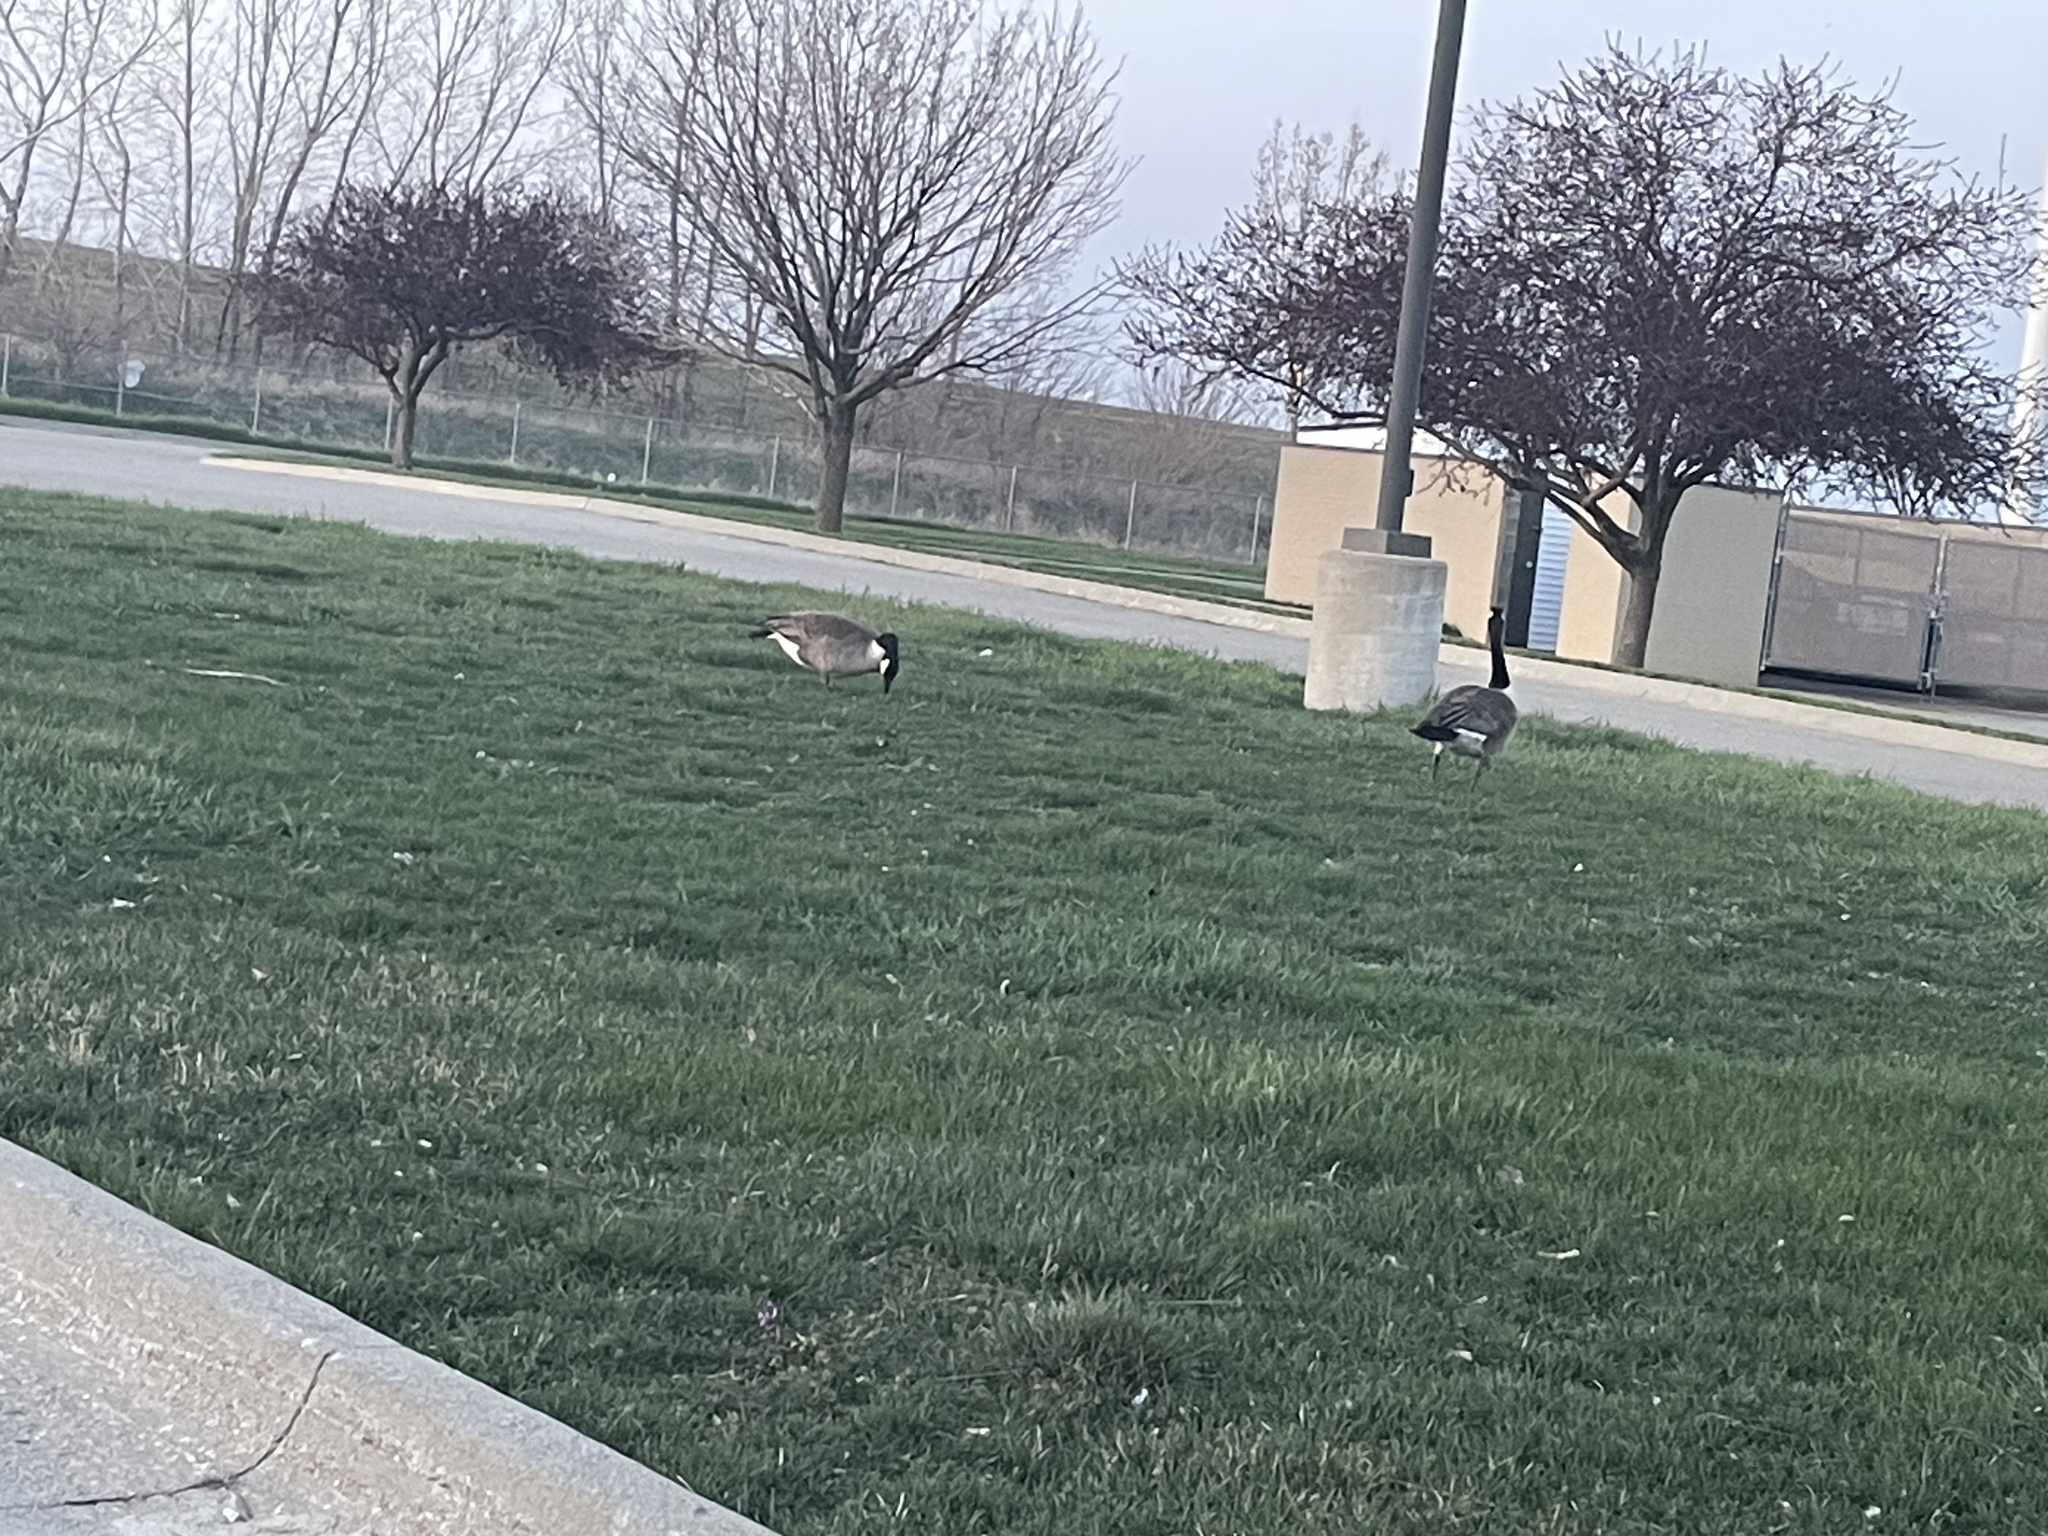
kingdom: Animalia
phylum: Chordata
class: Aves
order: Anseriformes
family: Anatidae
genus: Branta
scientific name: Branta canadensis
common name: Canada goose
